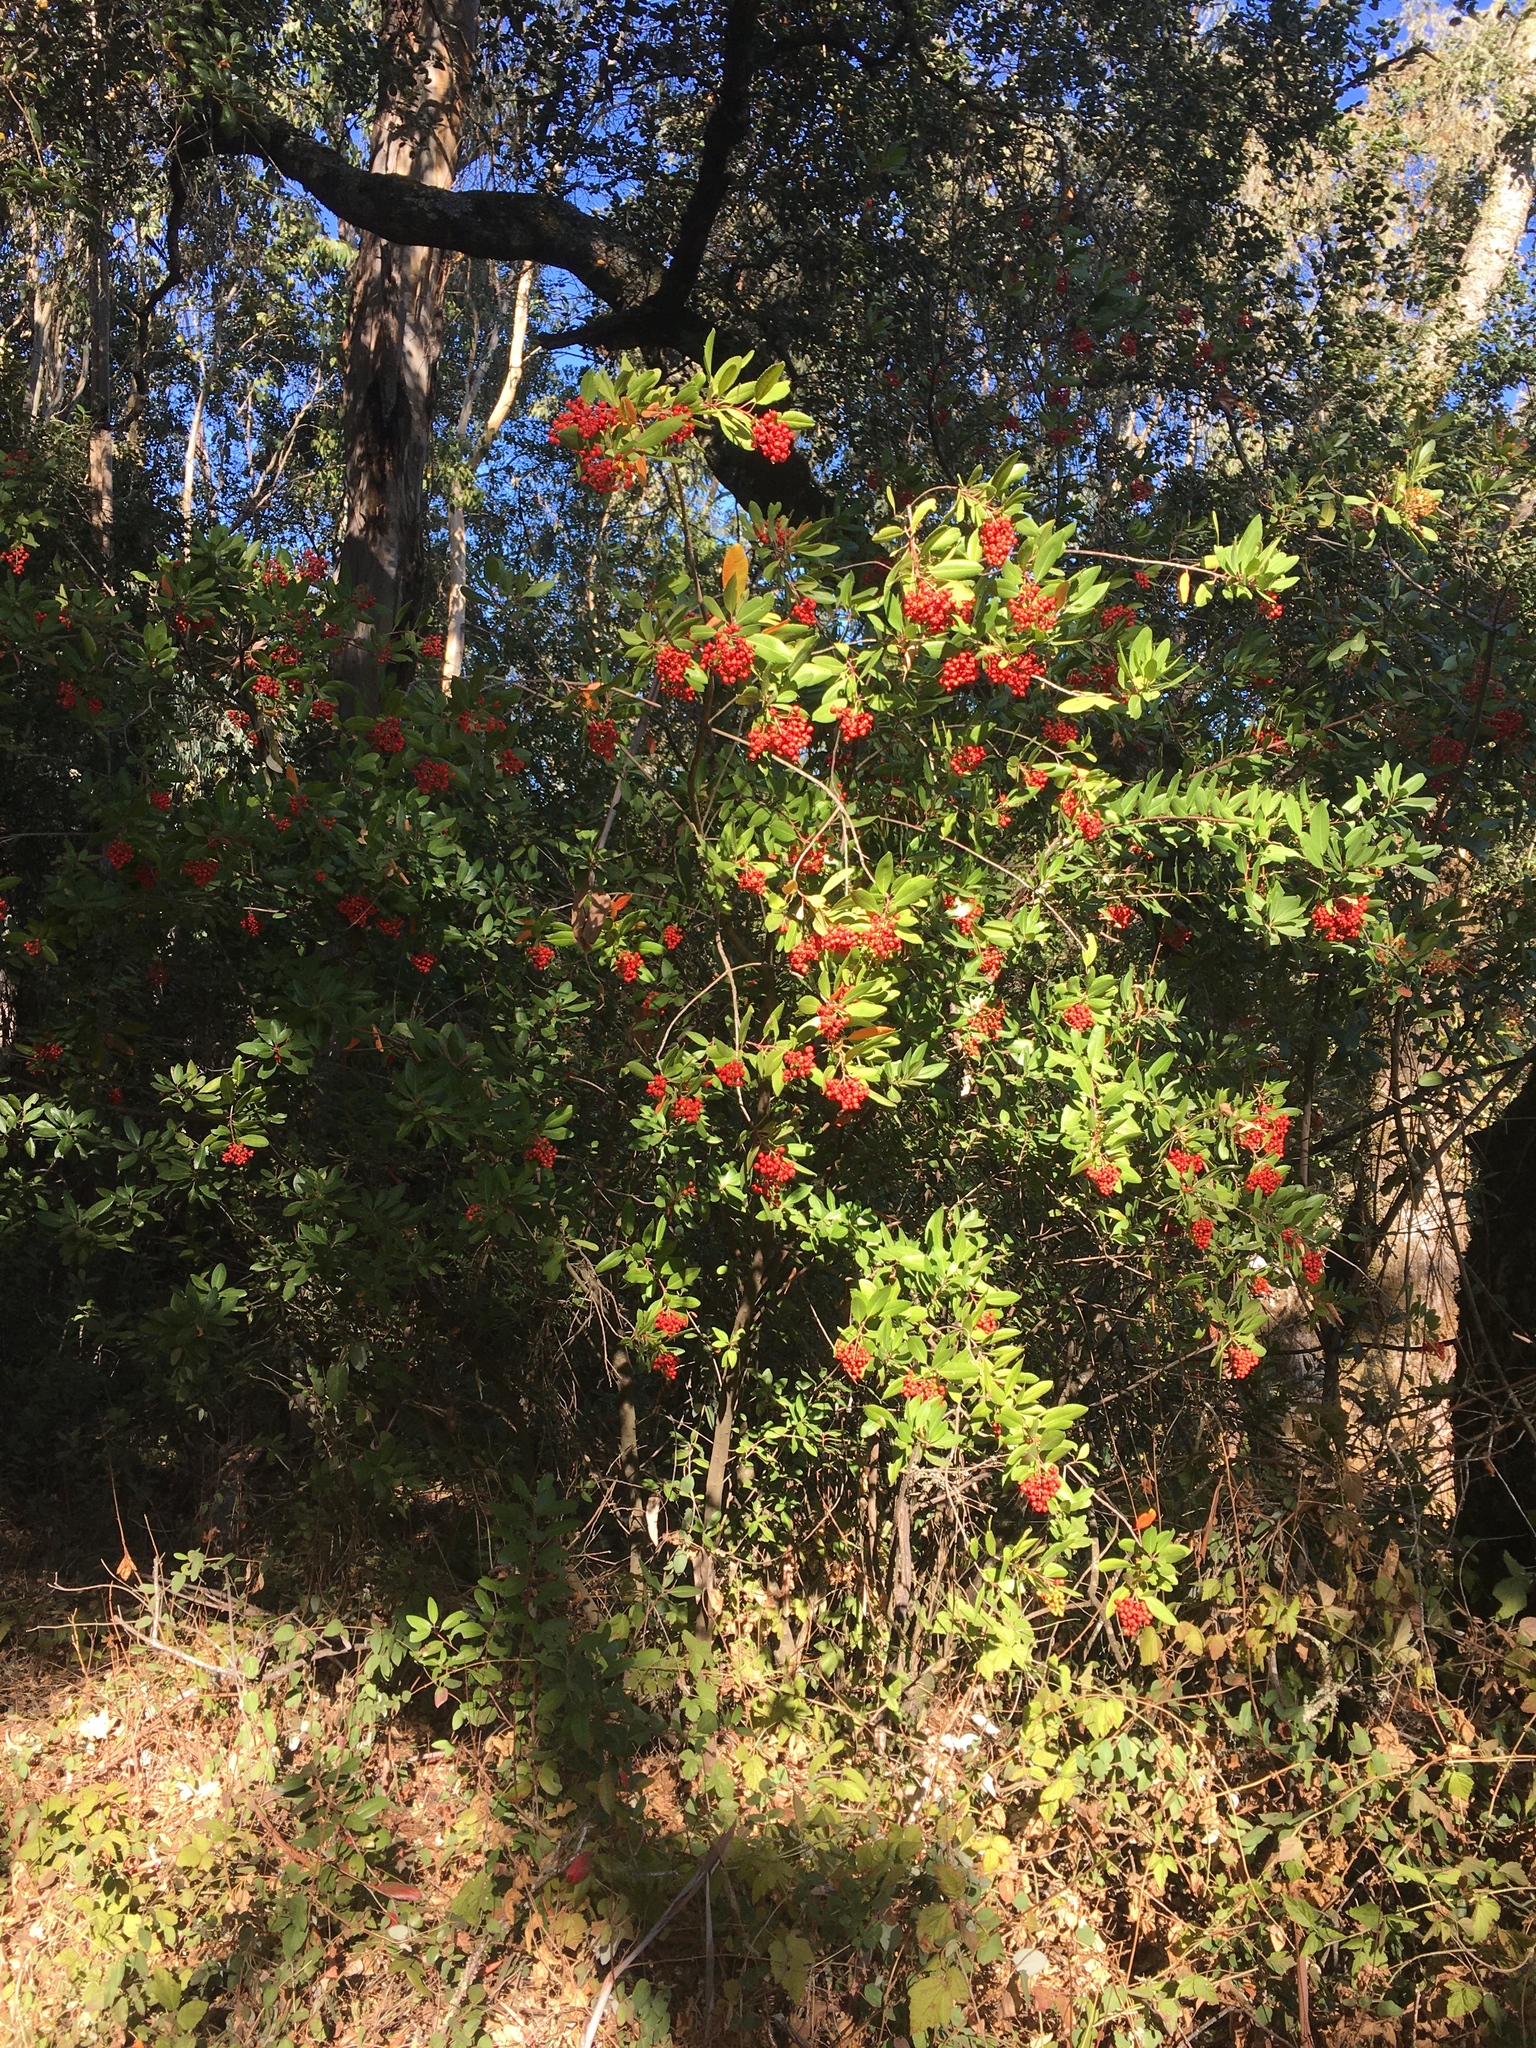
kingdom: Plantae
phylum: Tracheophyta
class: Magnoliopsida
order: Rosales
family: Rosaceae
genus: Heteromeles
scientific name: Heteromeles arbutifolia
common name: California-holly
